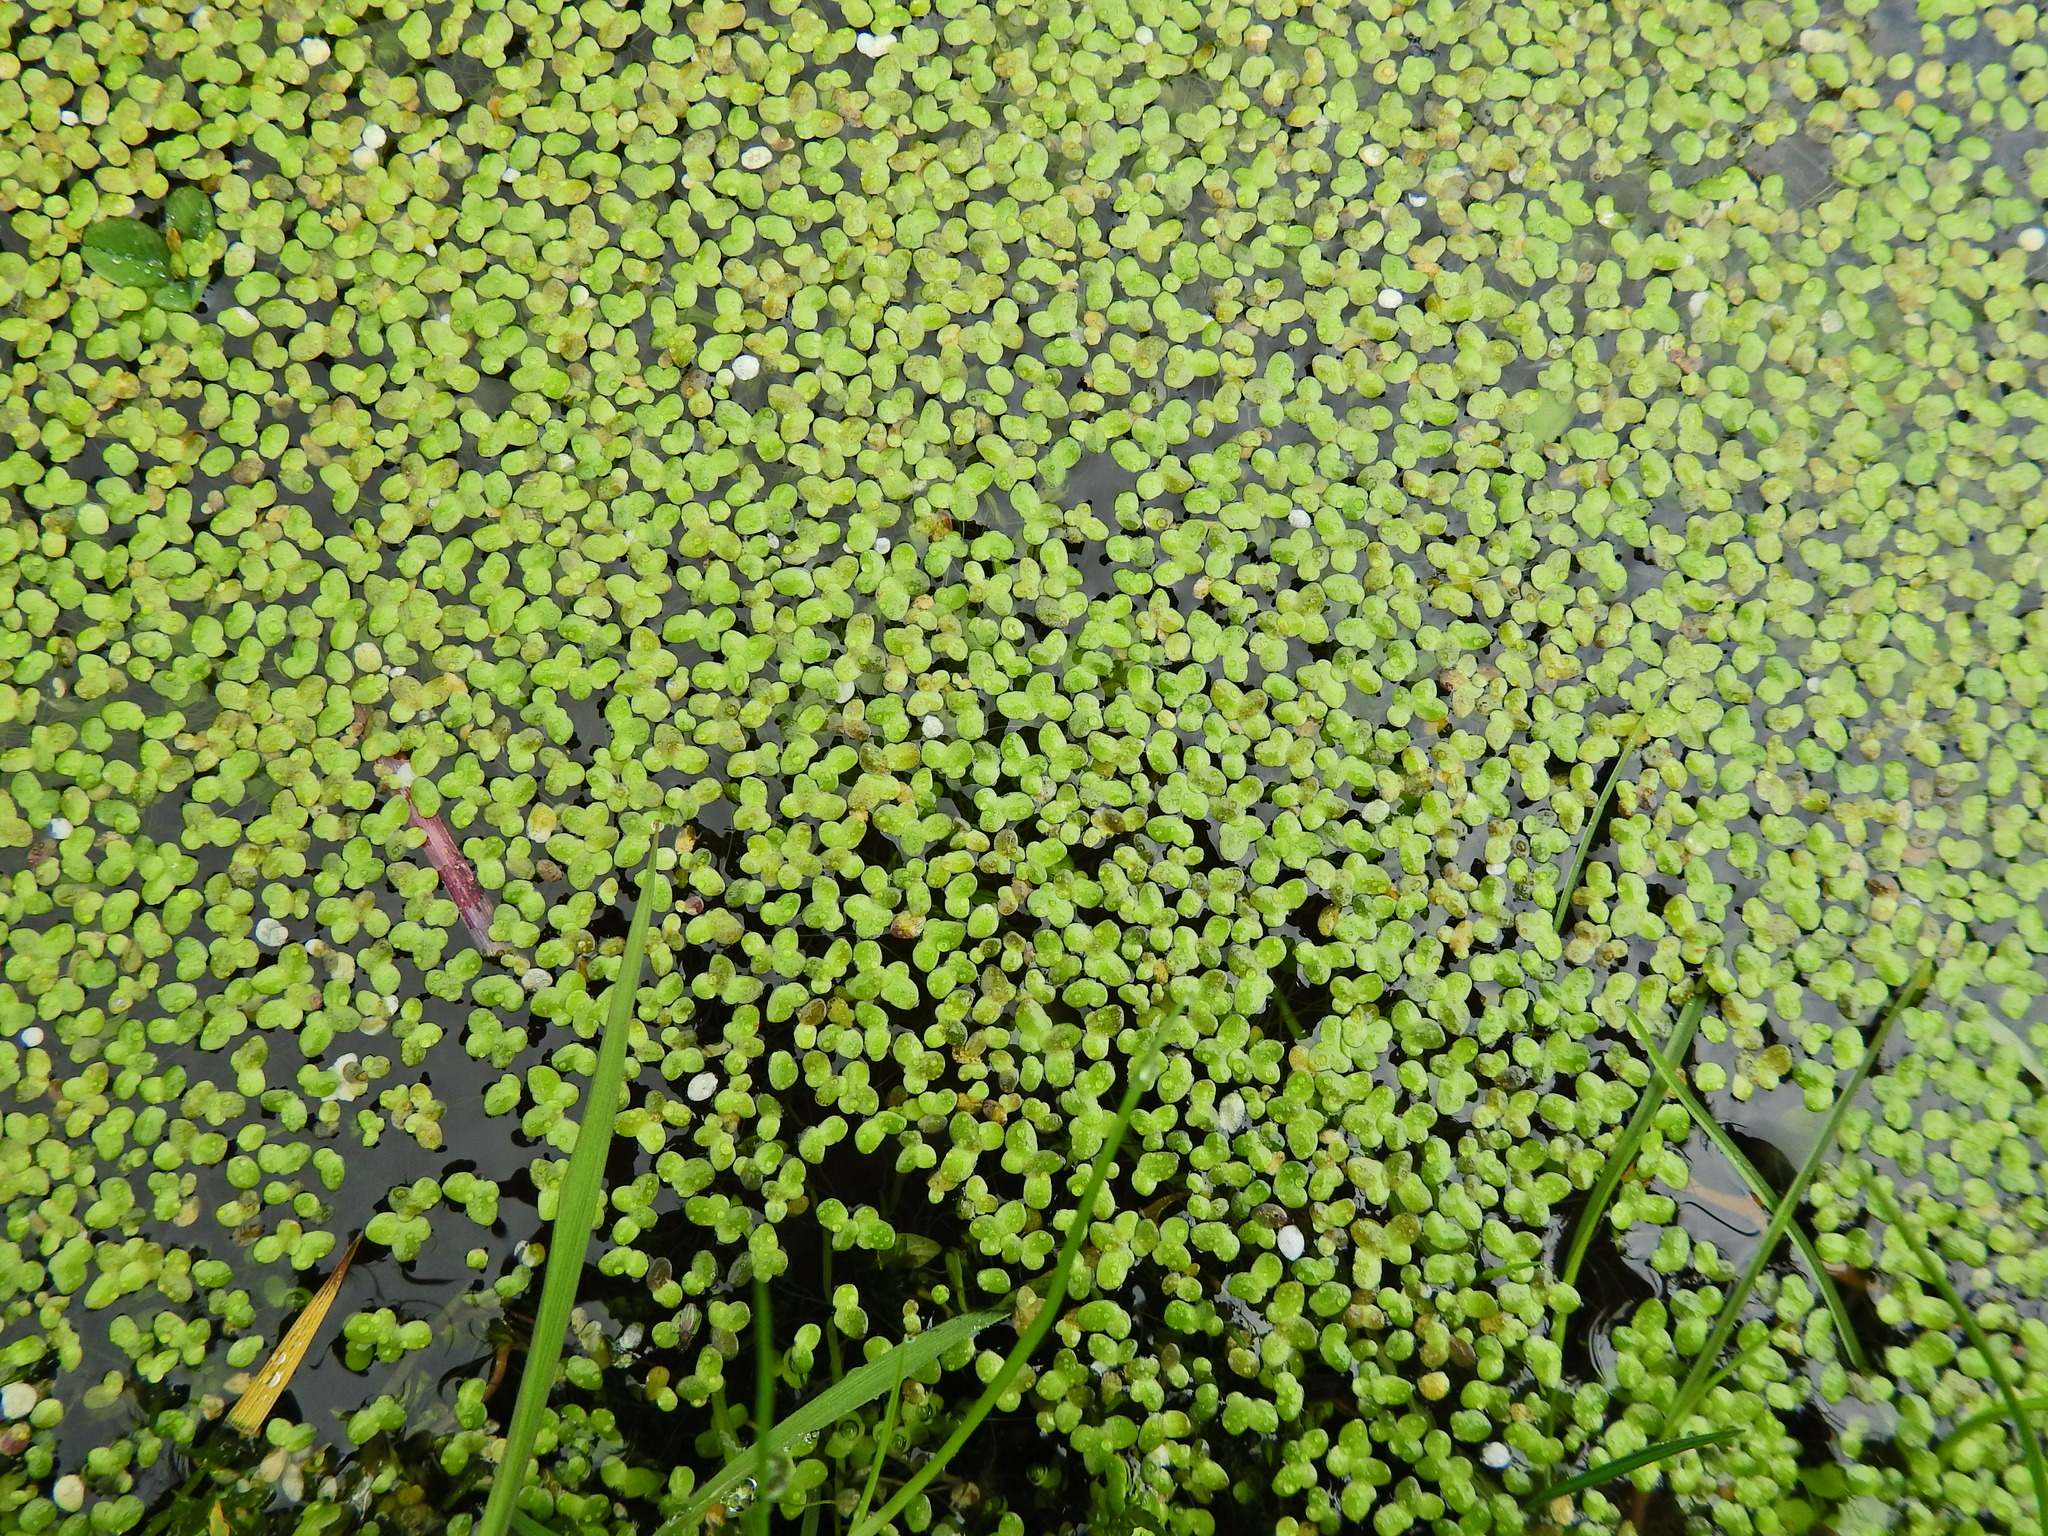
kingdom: Plantae
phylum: Tracheophyta
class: Liliopsida
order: Alismatales
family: Araceae
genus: Lemna
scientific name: Lemna minor
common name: Common duckweed
